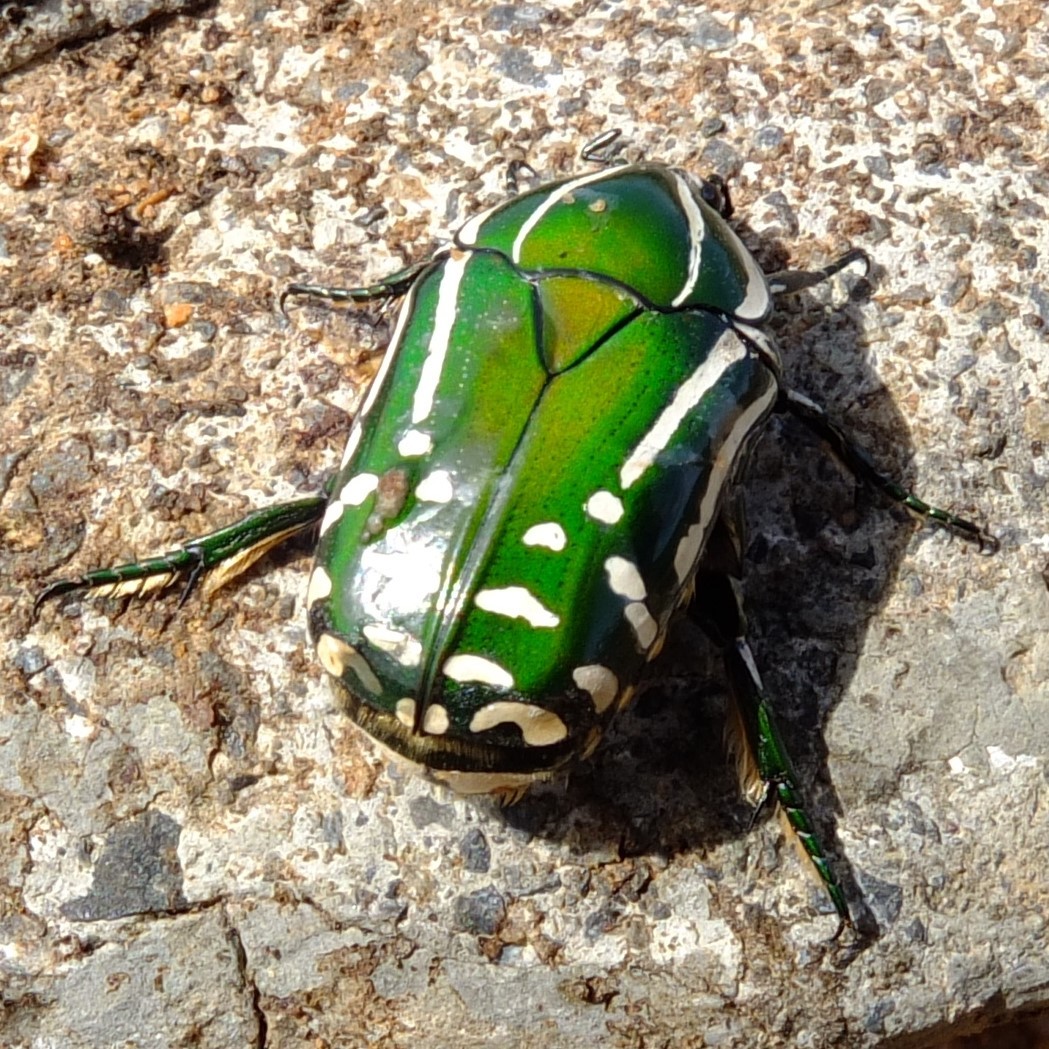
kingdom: Animalia
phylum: Arthropoda
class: Insecta
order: Coleoptera
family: Scarabaeidae
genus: Rhabdotis
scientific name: Rhabdotis semipunctata
